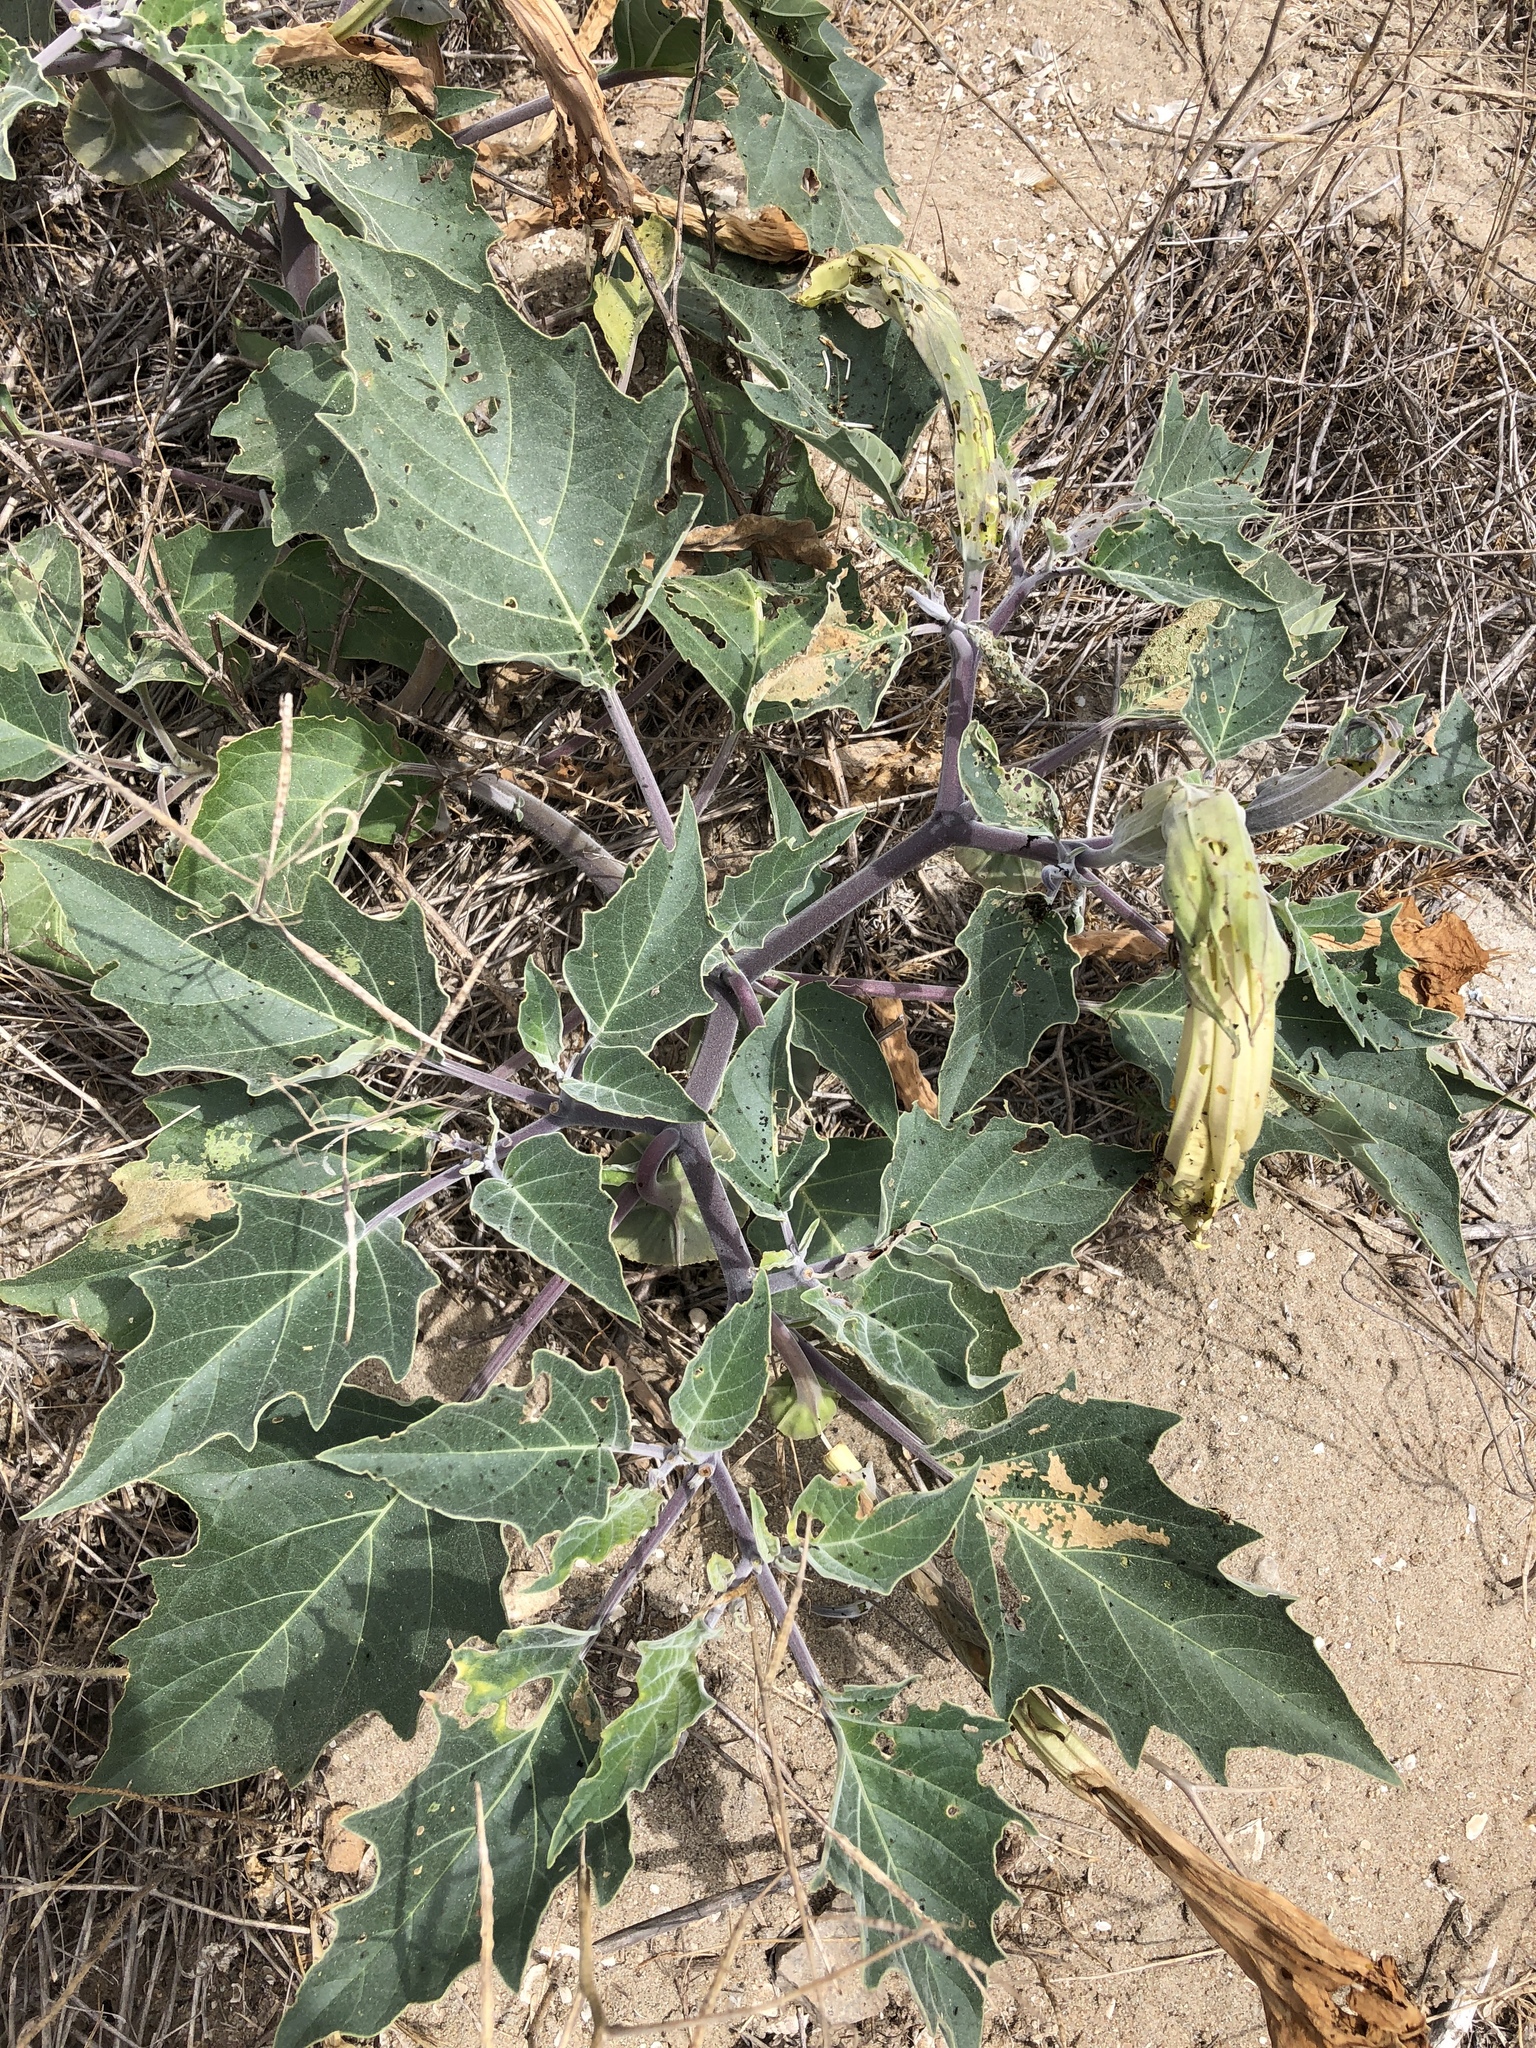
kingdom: Plantae
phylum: Tracheophyta
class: Magnoliopsida
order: Solanales
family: Solanaceae
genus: Datura
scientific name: Datura wrightii
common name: Sacred thorn-apple
